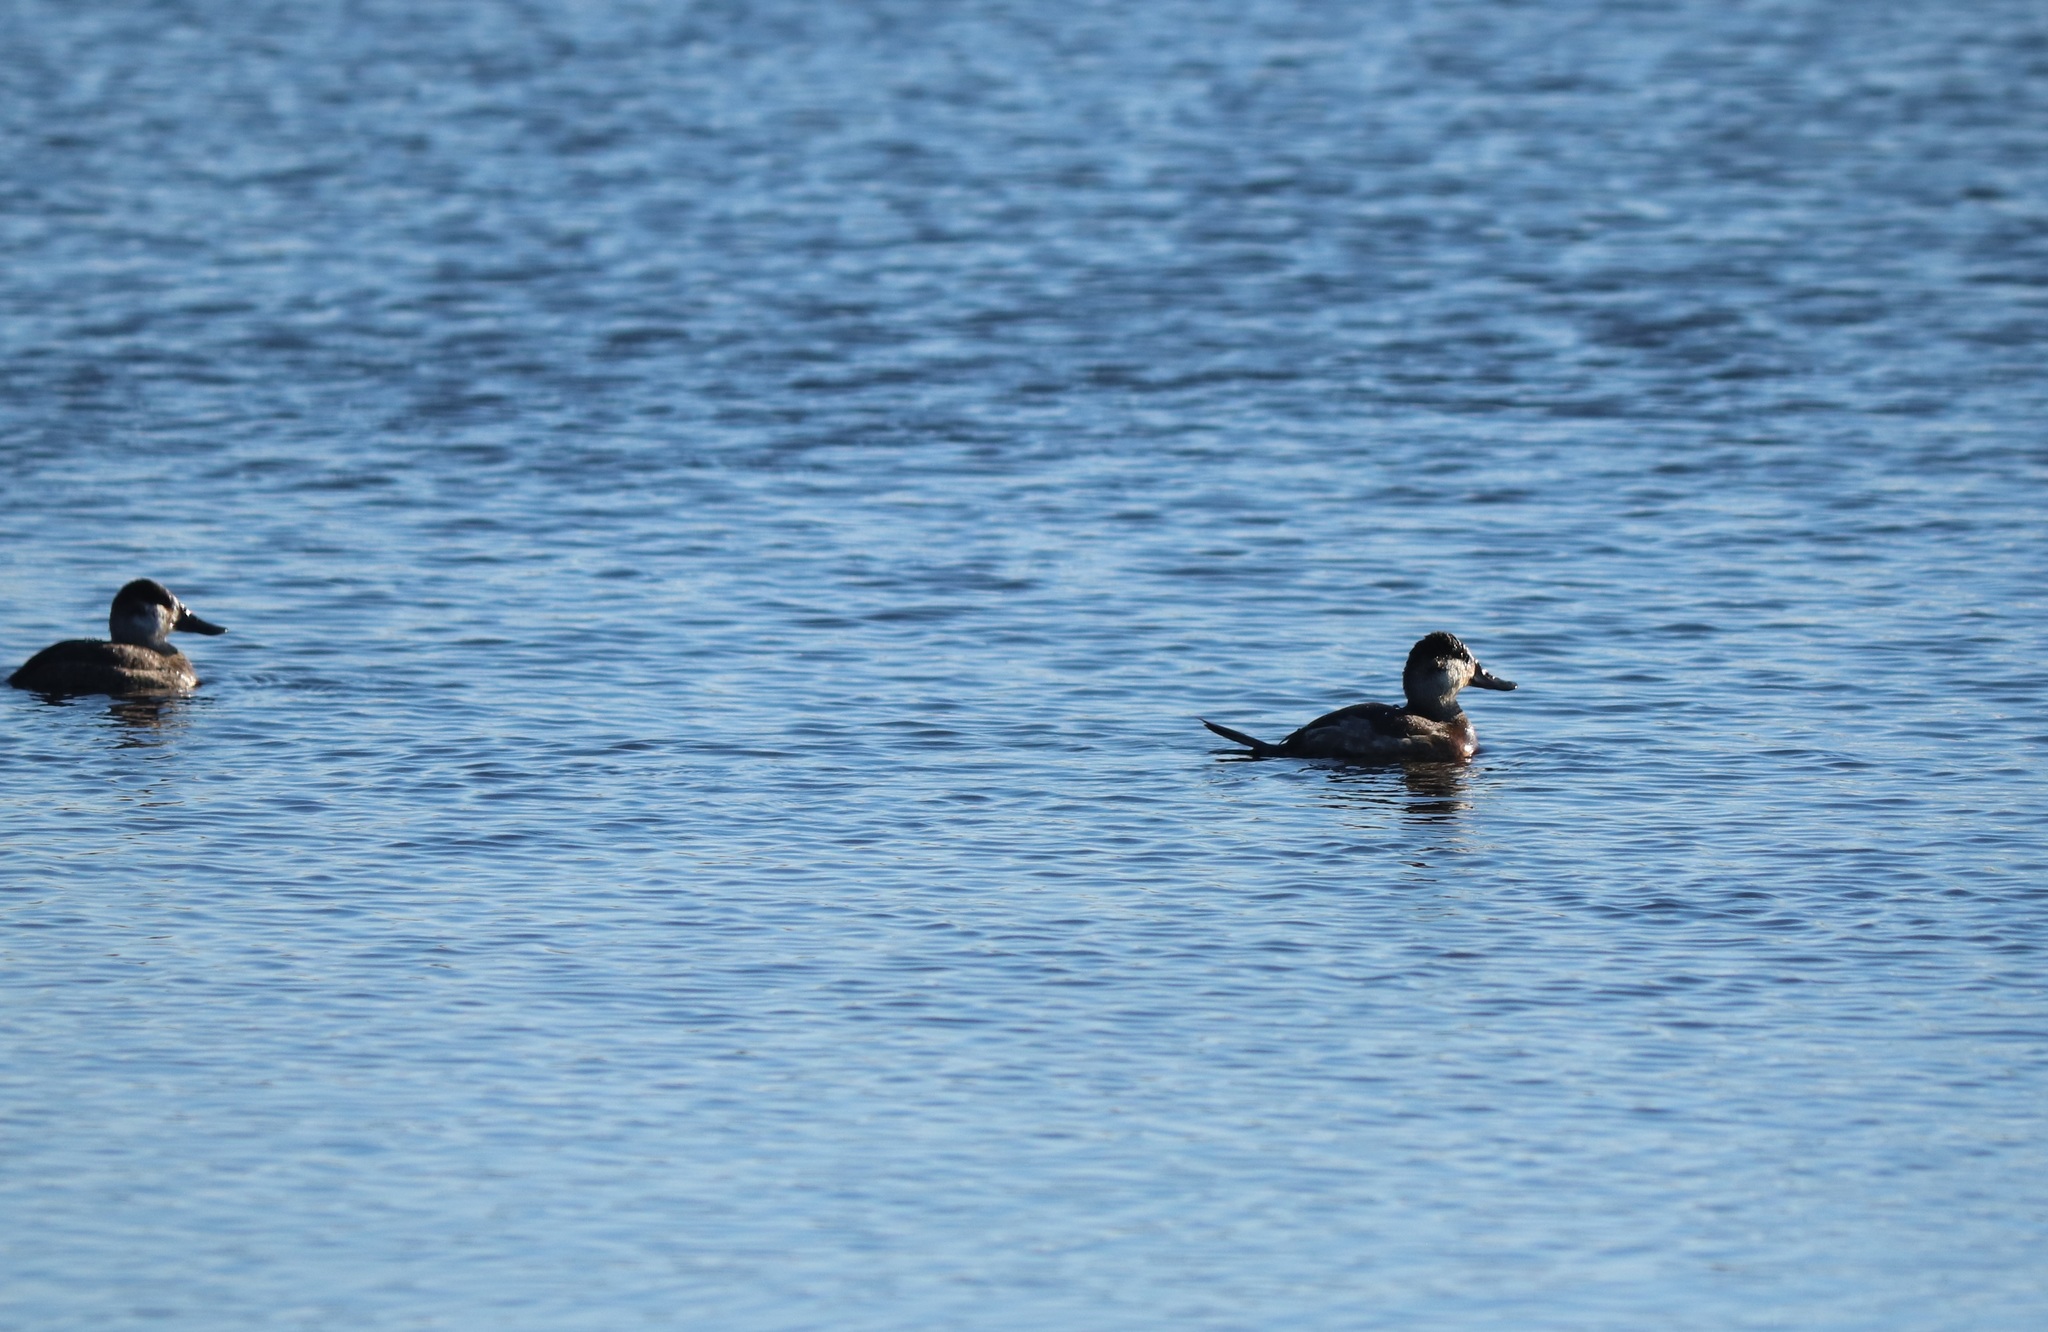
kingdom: Animalia
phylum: Chordata
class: Aves
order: Anseriformes
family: Anatidae
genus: Oxyura
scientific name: Oxyura jamaicensis
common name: Ruddy duck
